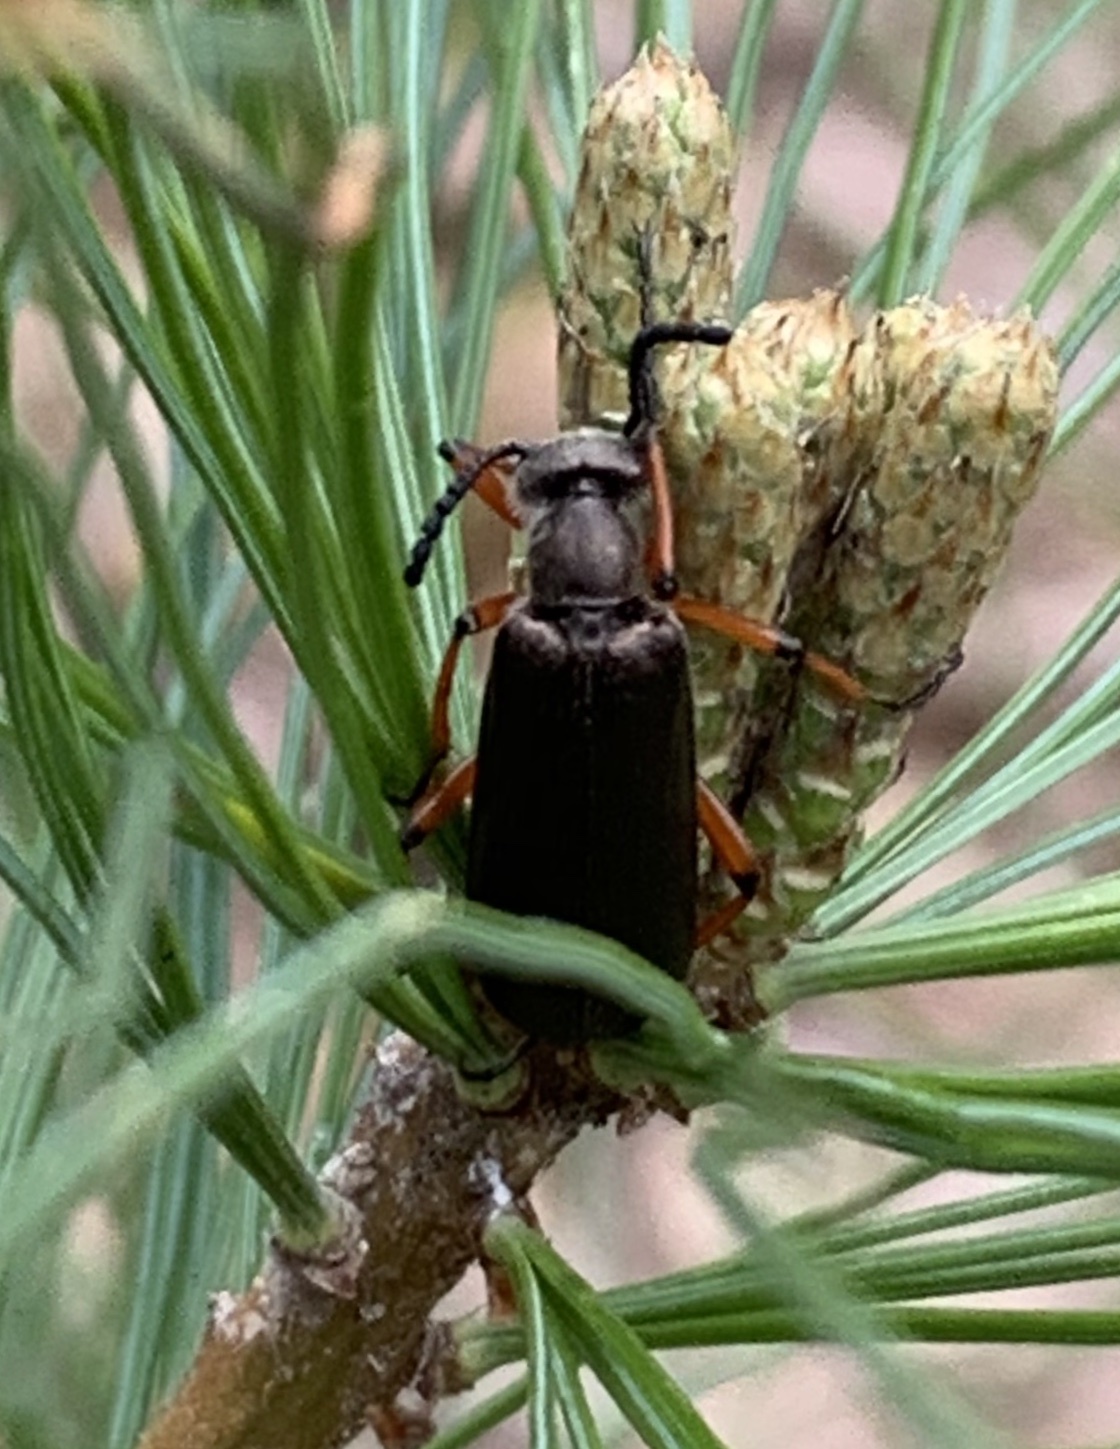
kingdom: Animalia
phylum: Arthropoda
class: Insecta
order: Coleoptera
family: Meloidae
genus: Lytta
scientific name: Lytta aenea
